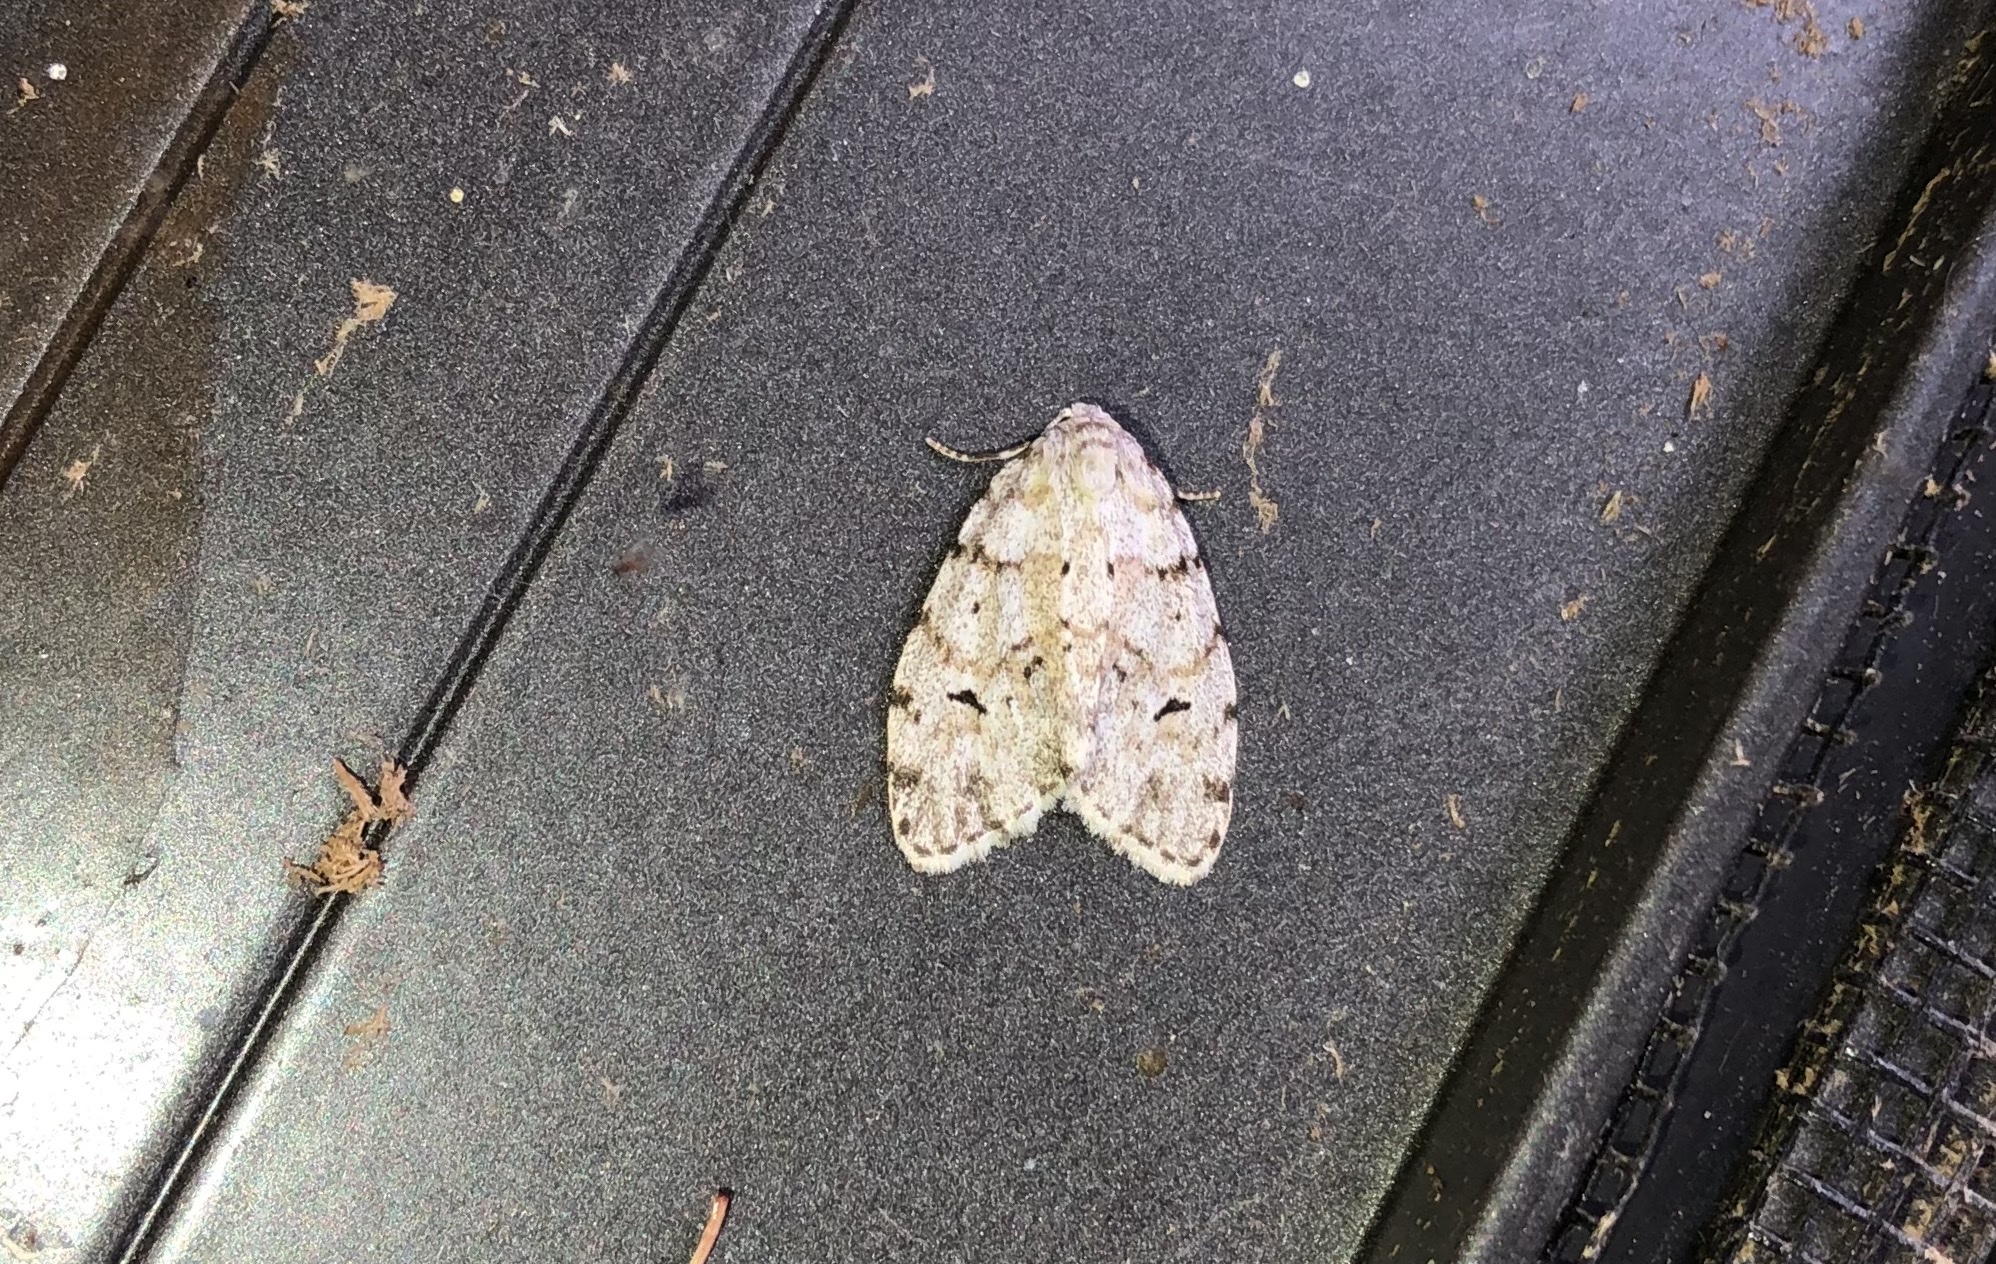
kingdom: Animalia
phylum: Arthropoda
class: Insecta
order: Lepidoptera
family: Erebidae
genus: Clemensia
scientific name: Clemensia umbrata
